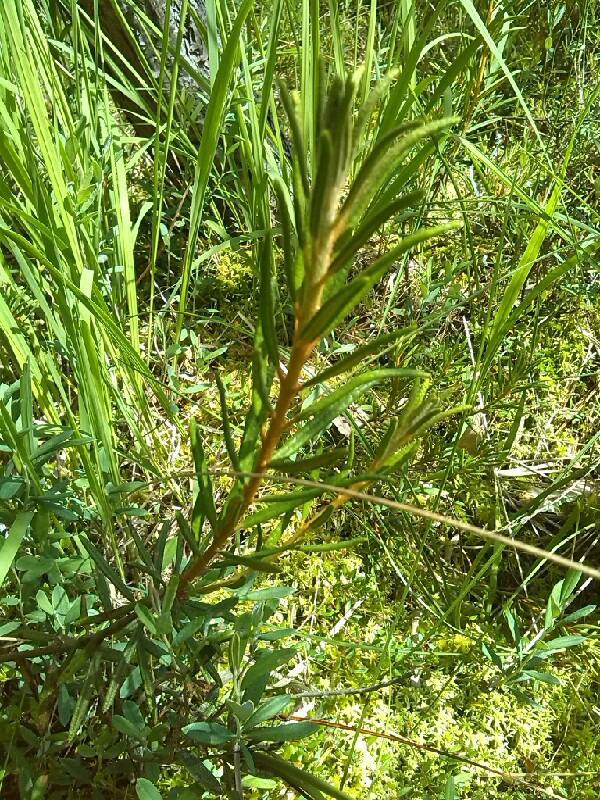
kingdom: Plantae
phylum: Tracheophyta
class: Magnoliopsida
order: Ericales
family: Ericaceae
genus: Rhododendron
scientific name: Rhododendron tomentosum
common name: Marsh labrador tea
